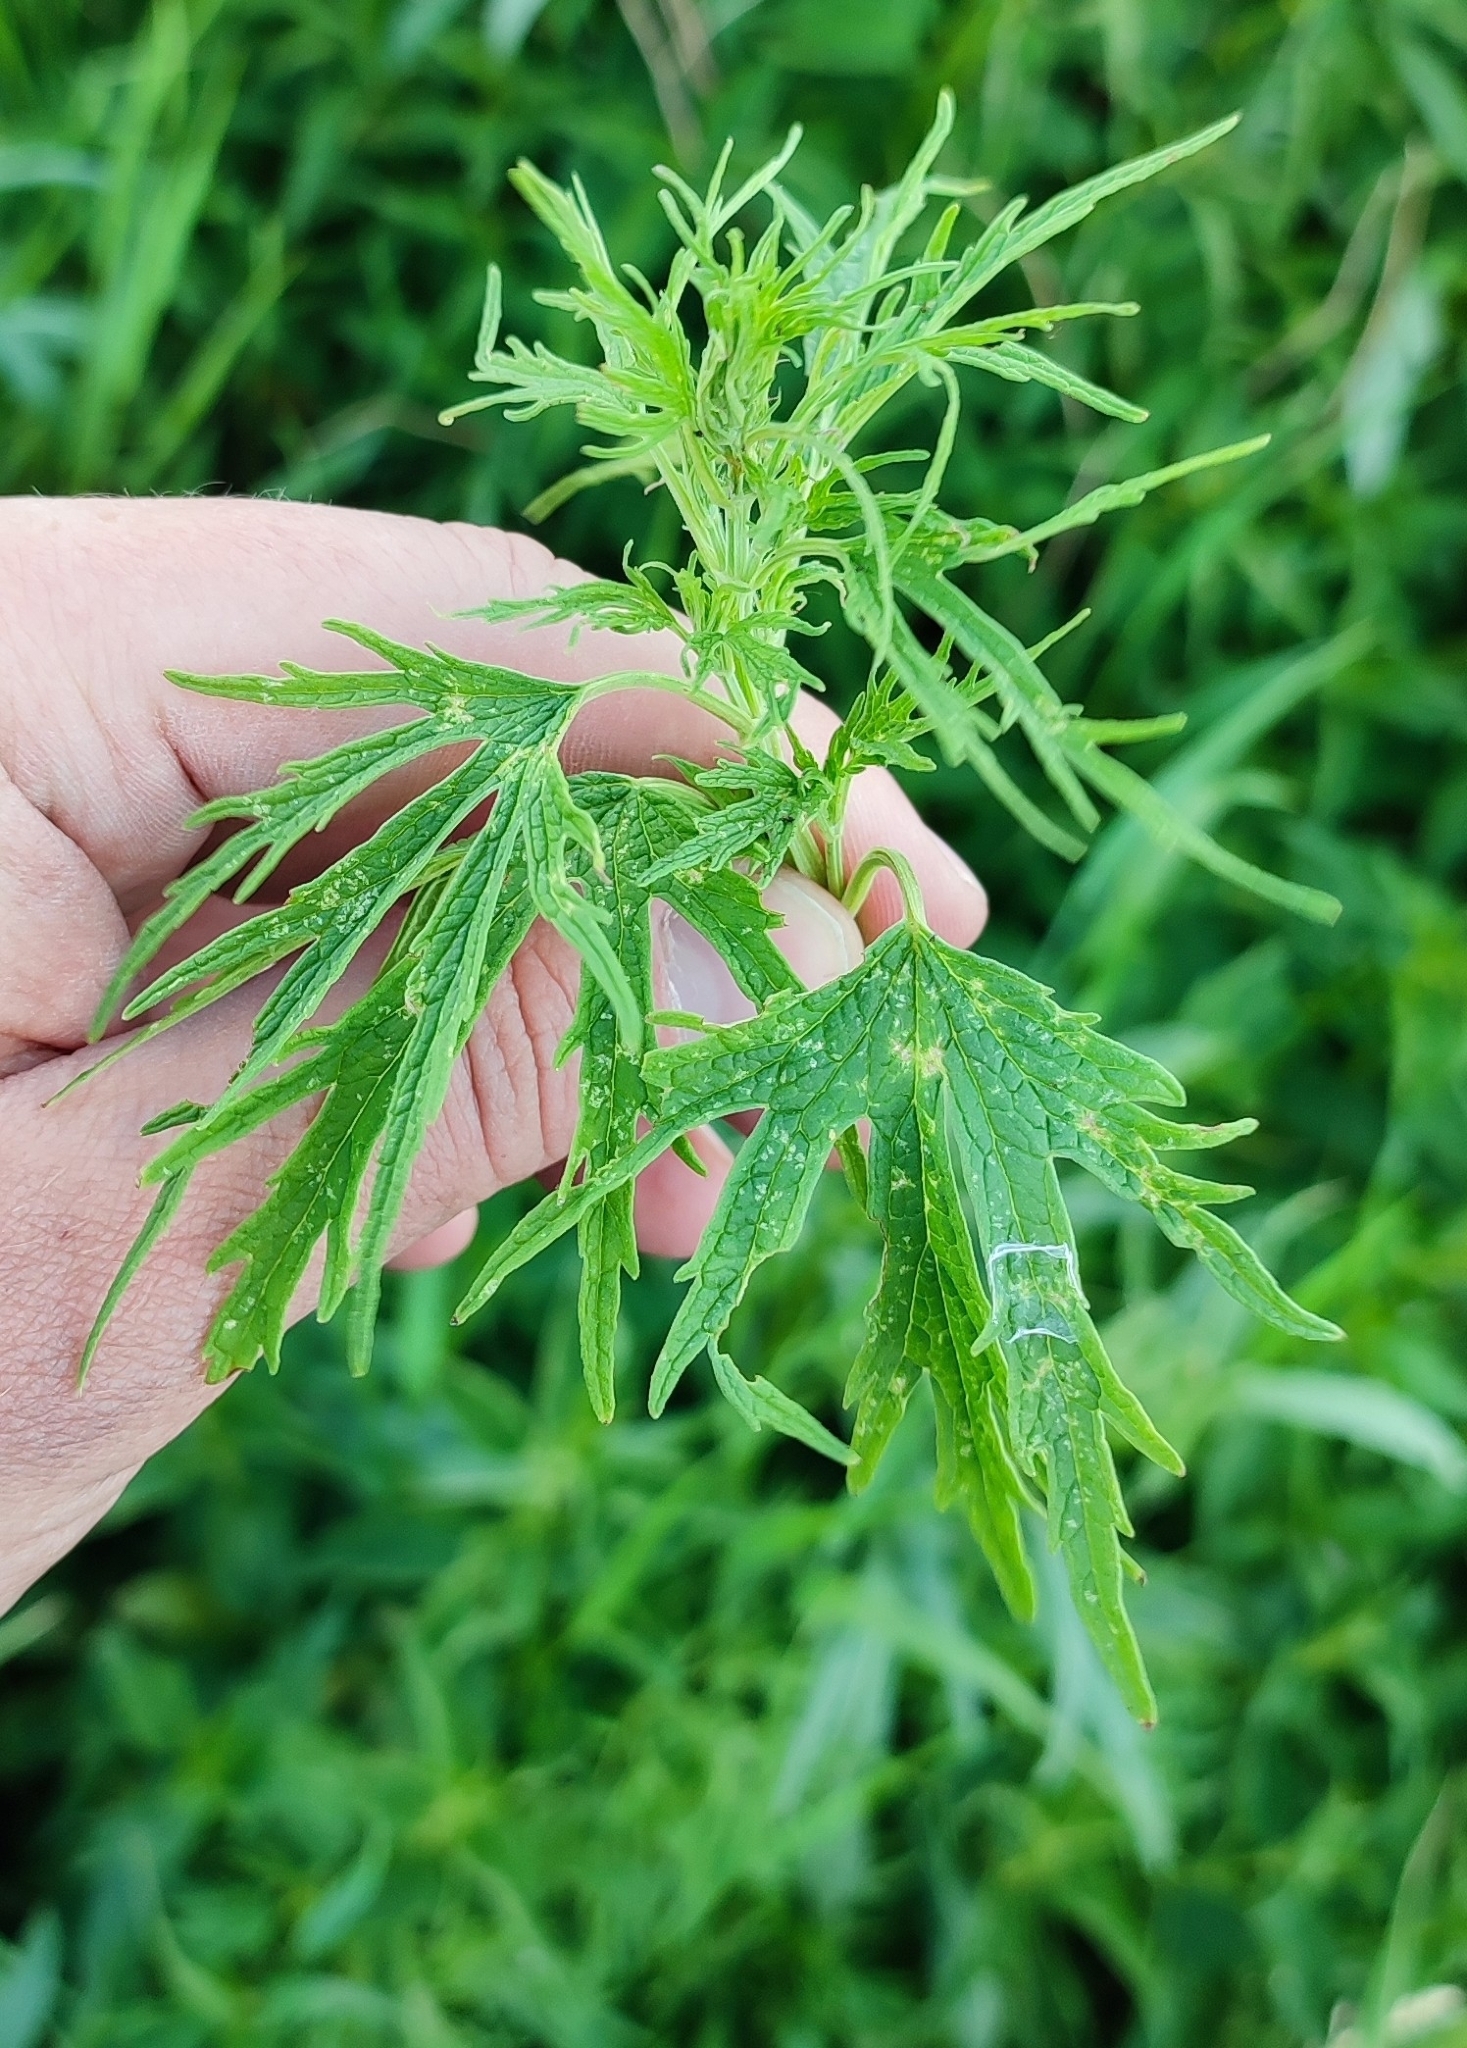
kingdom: Plantae
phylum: Tracheophyta
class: Magnoliopsida
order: Lamiales
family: Lamiaceae
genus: Leonurus
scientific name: Leonurus glaucescens
